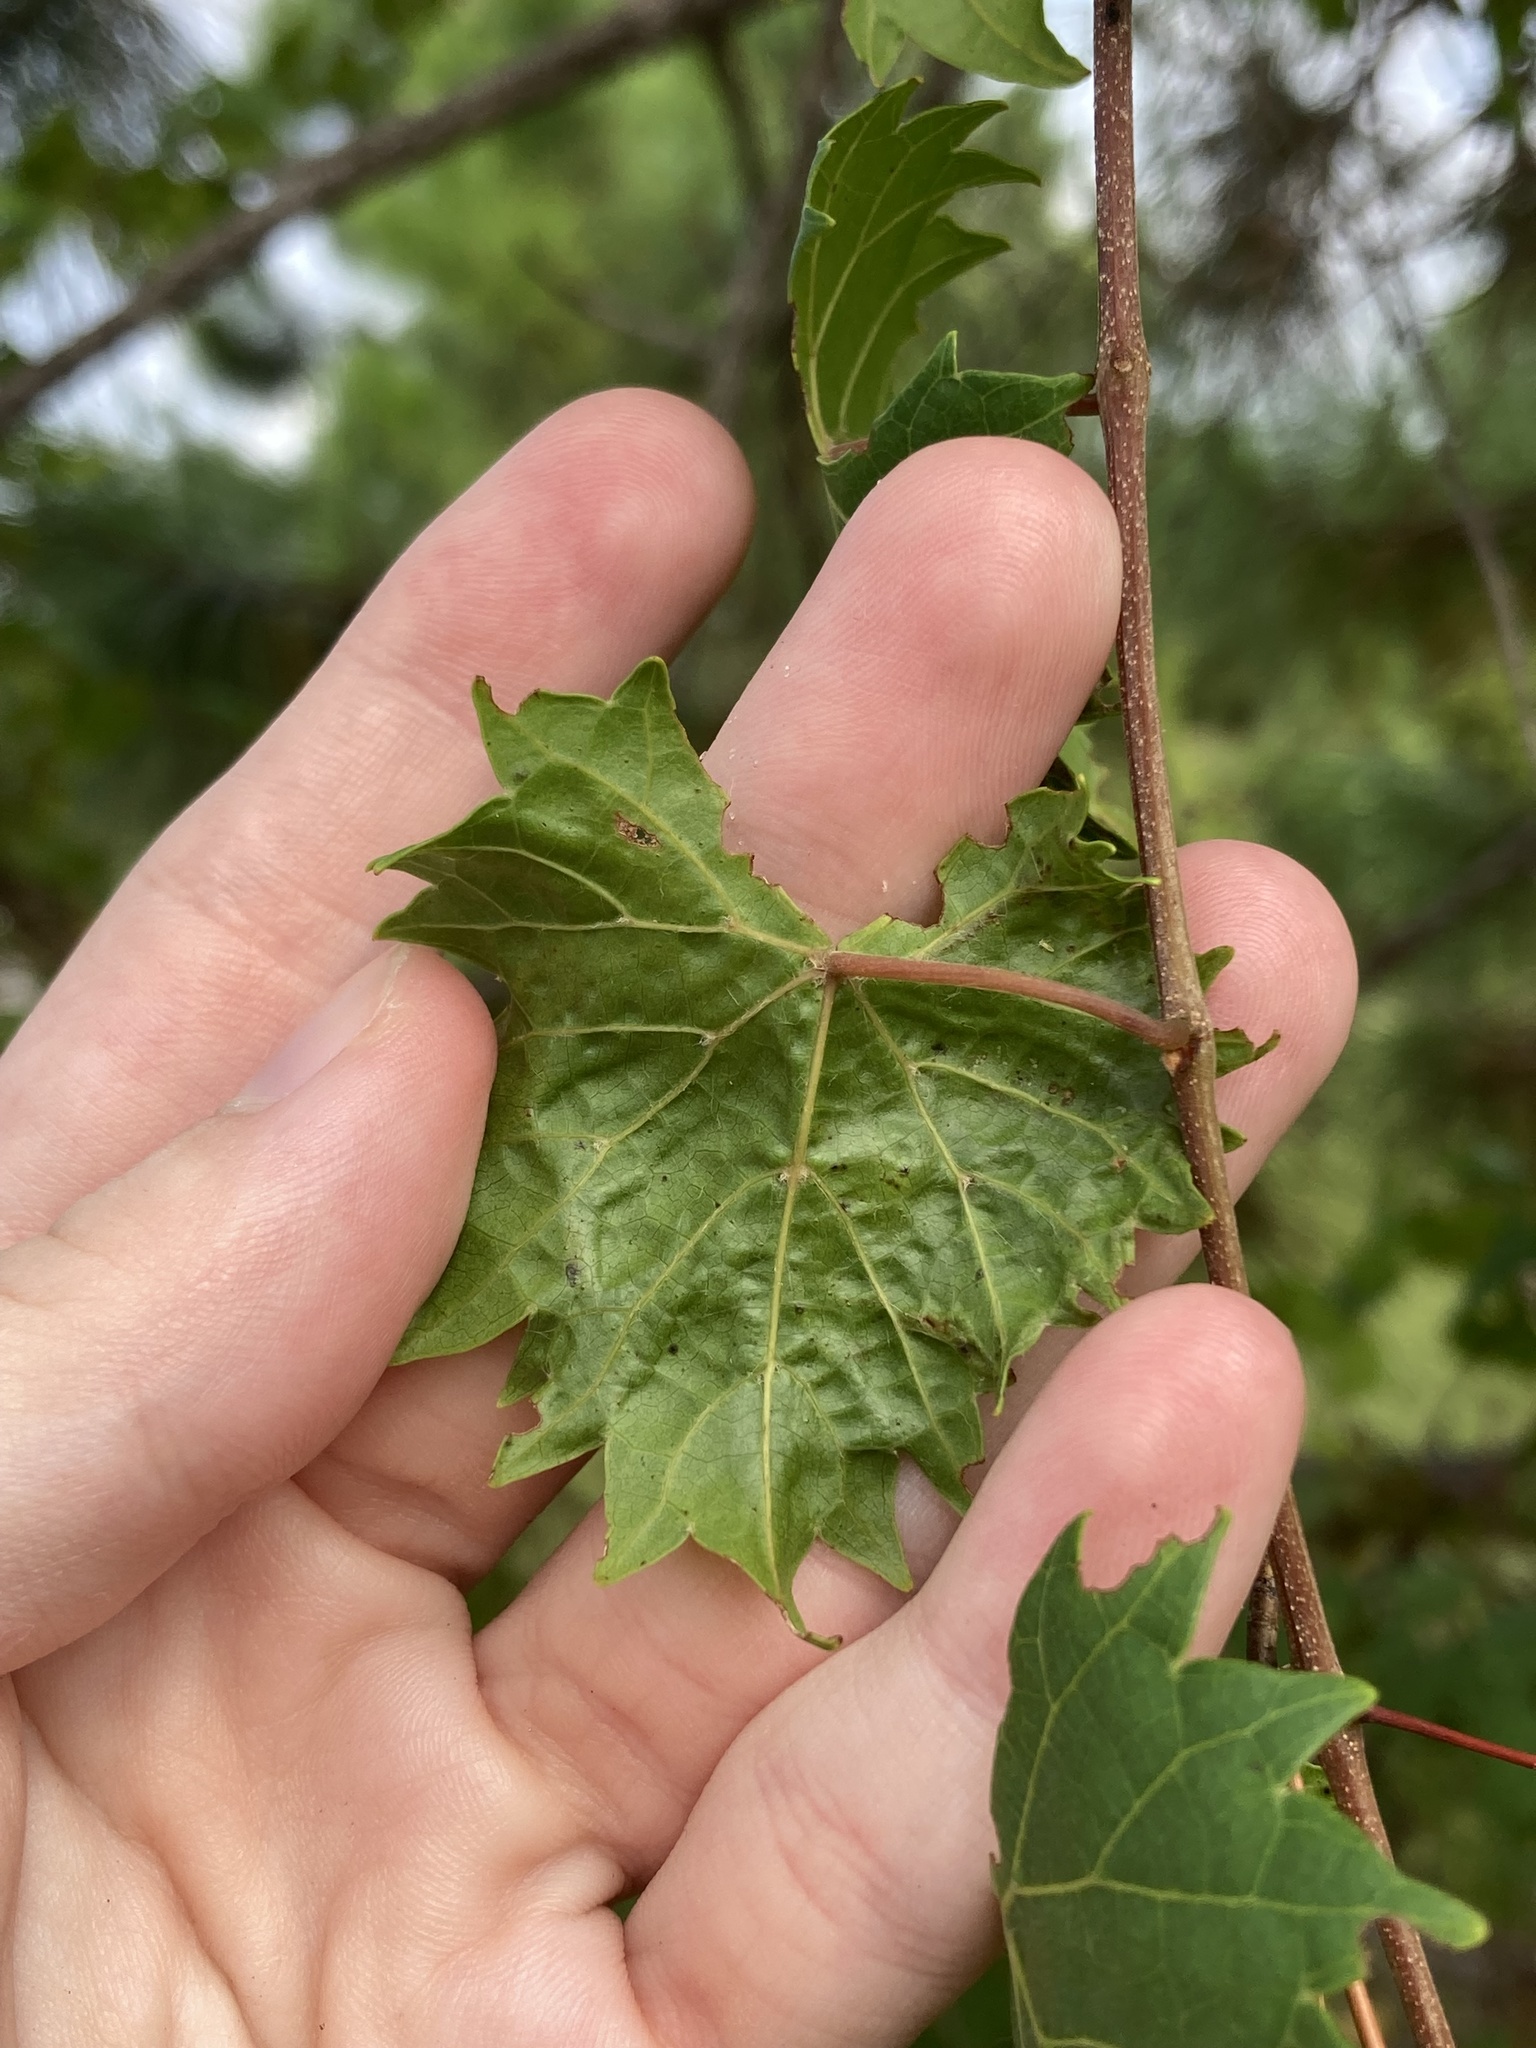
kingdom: Animalia
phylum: Arthropoda
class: Insecta
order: Lepidoptera
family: Gracillariidae
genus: Phyllocnistis
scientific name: Phyllocnistis vitegenella
